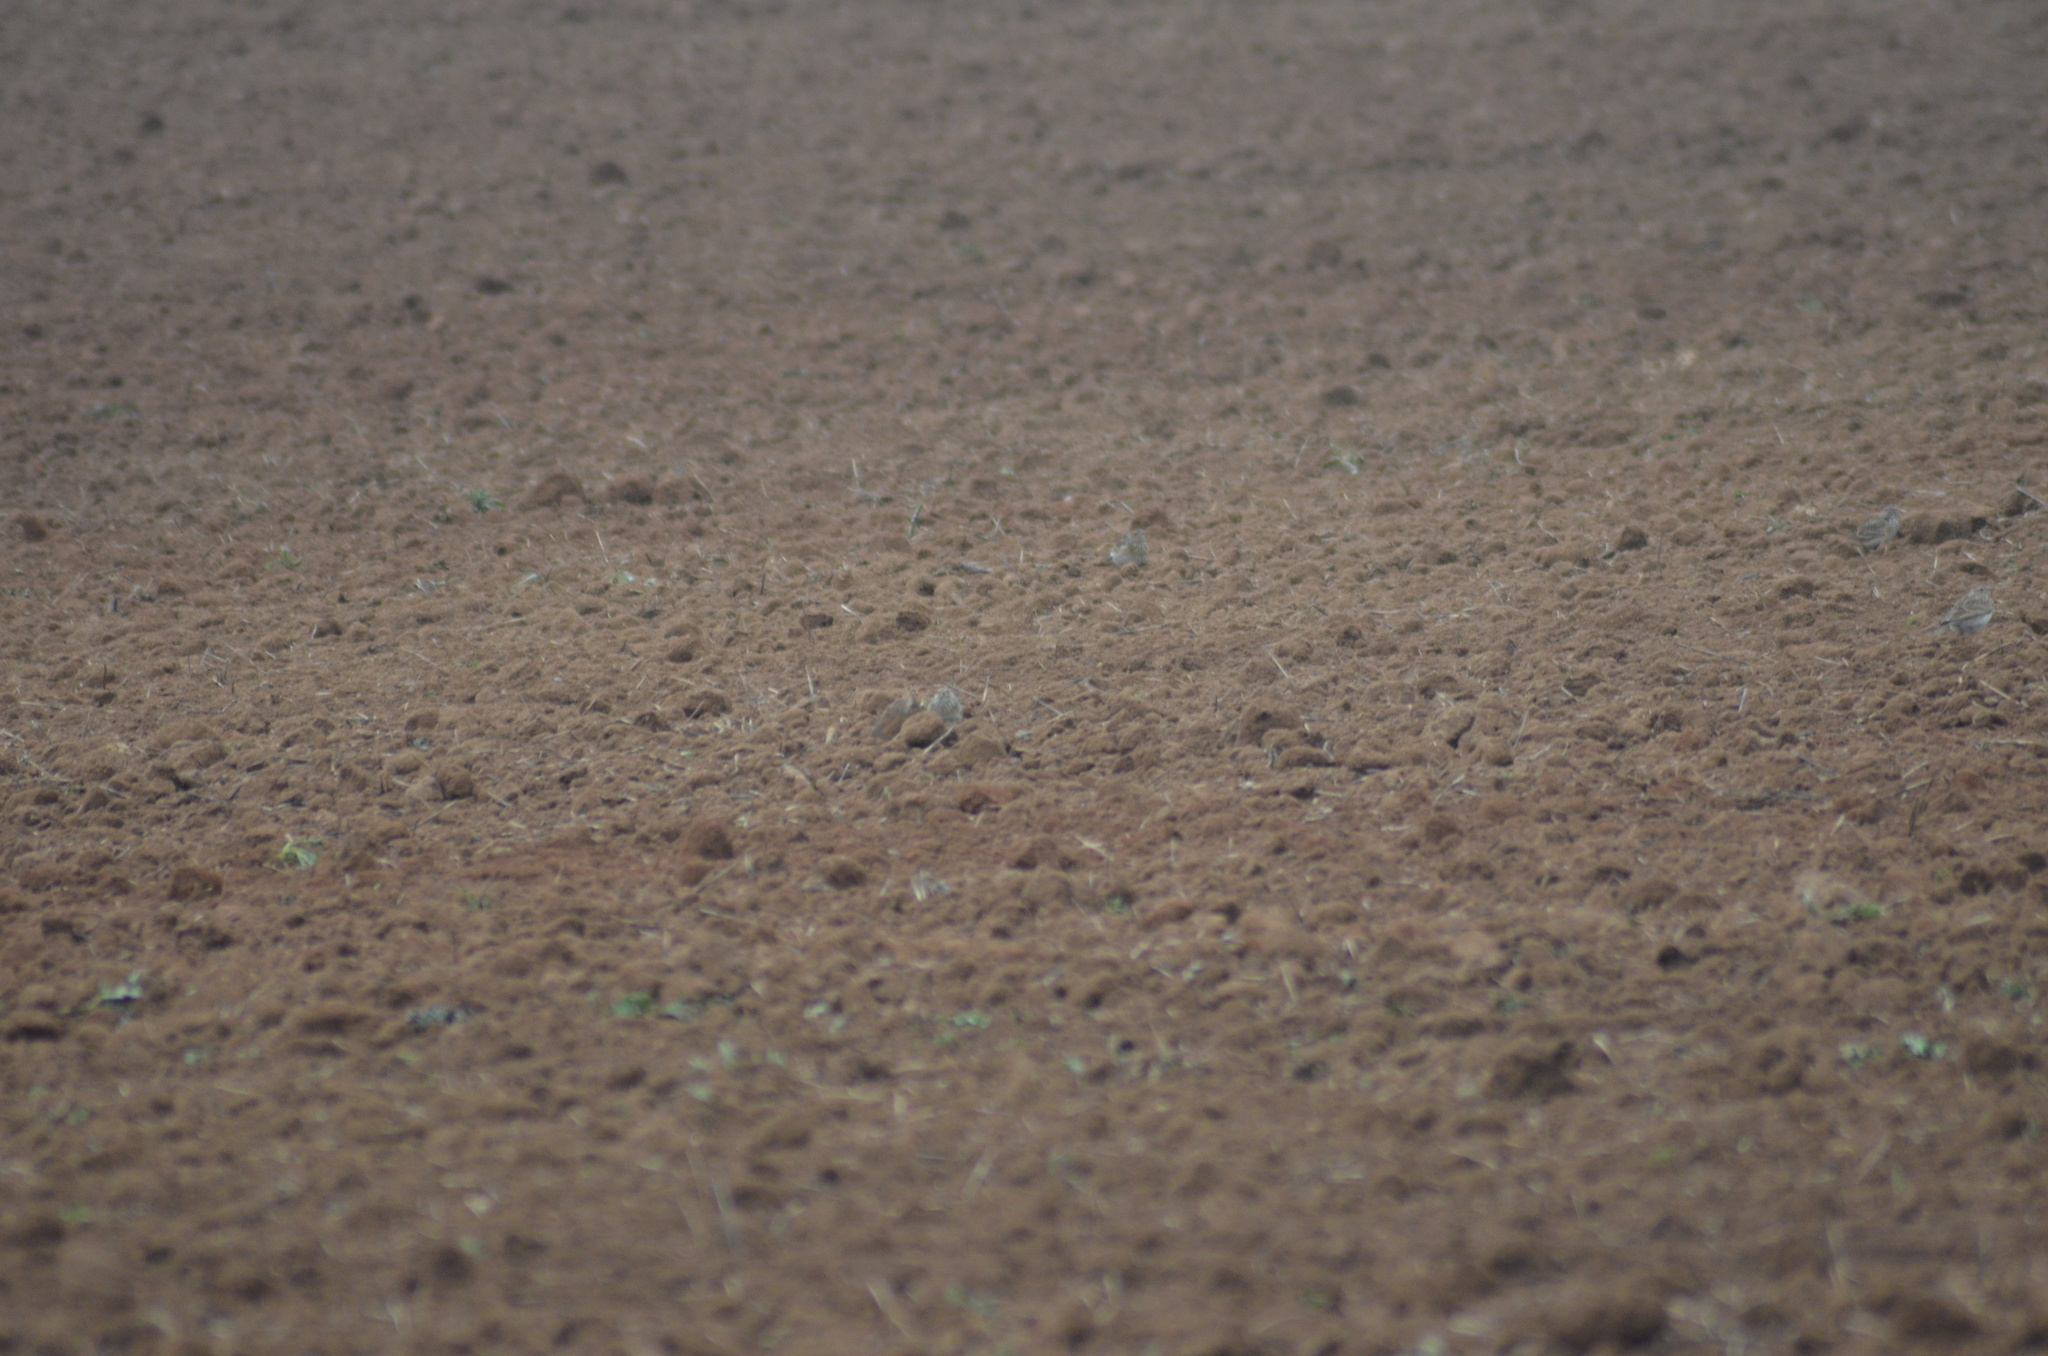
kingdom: Animalia
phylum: Chordata
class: Aves
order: Passeriformes
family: Alaudidae
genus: Galerida
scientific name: Galerida cristata
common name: Crested lark
